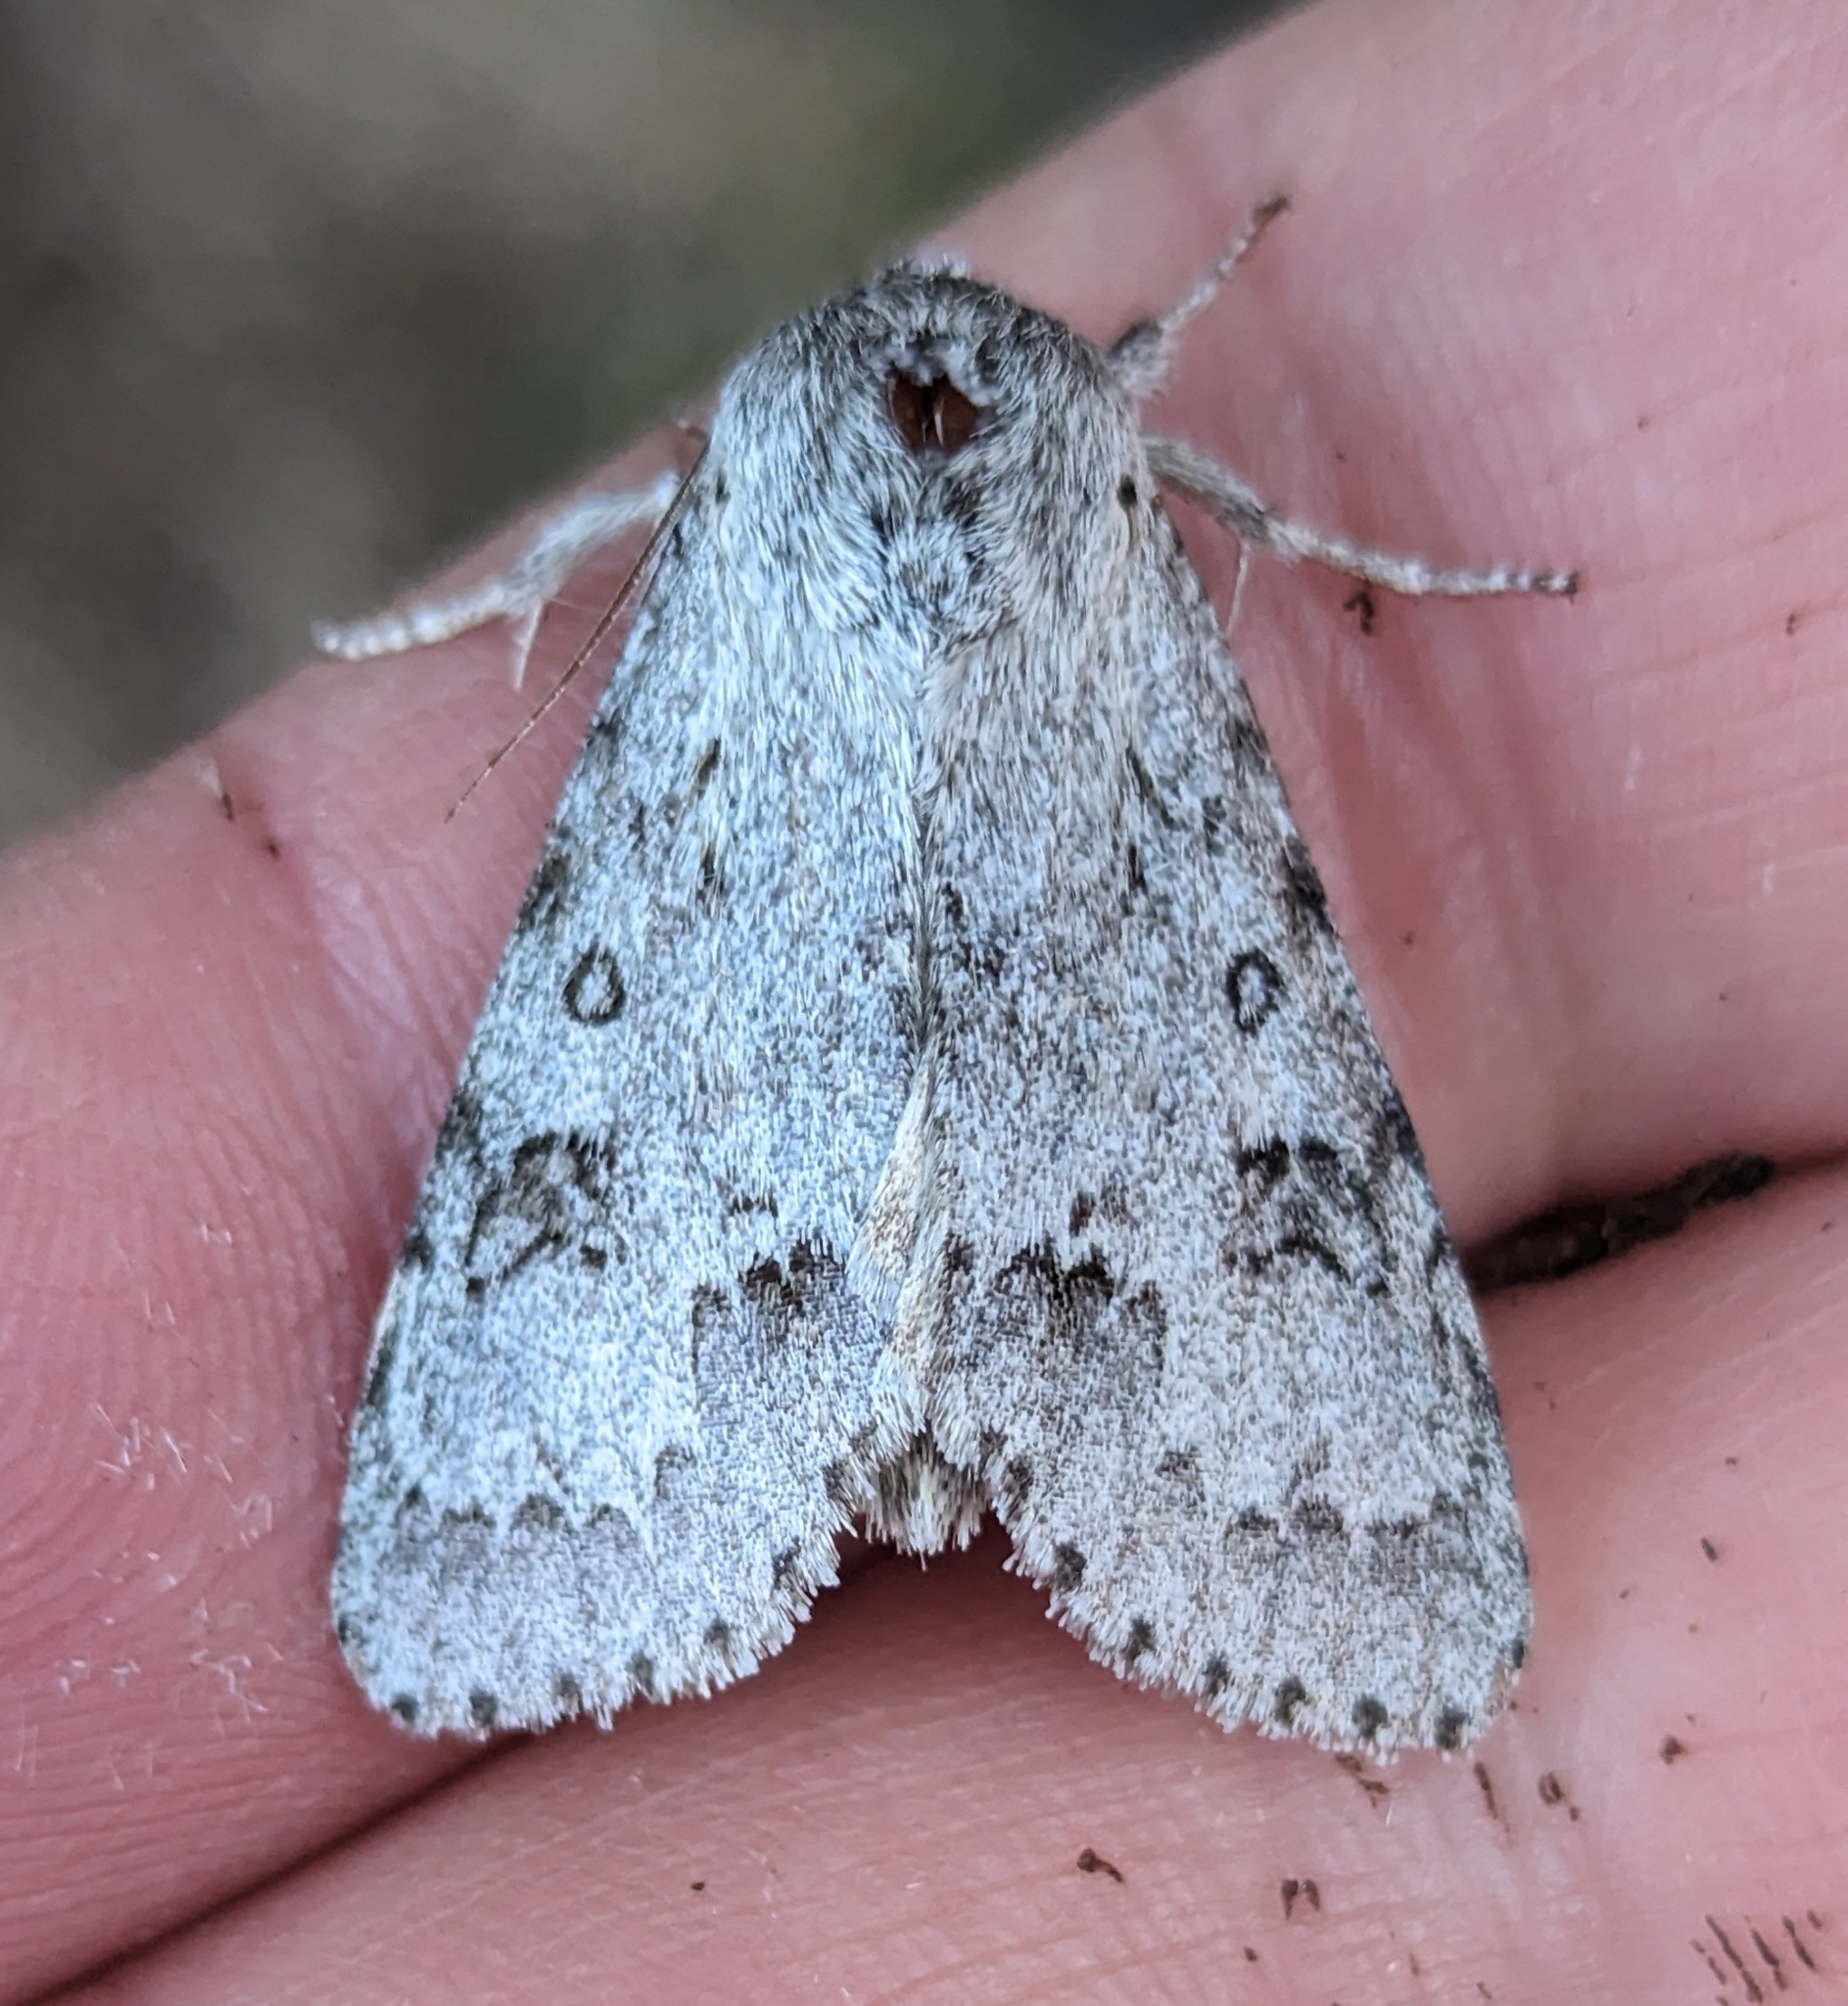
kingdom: Animalia
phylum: Arthropoda
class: Insecta
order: Lepidoptera
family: Noctuidae
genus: Acronicta
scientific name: Acronicta insita
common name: Large gray dagger
